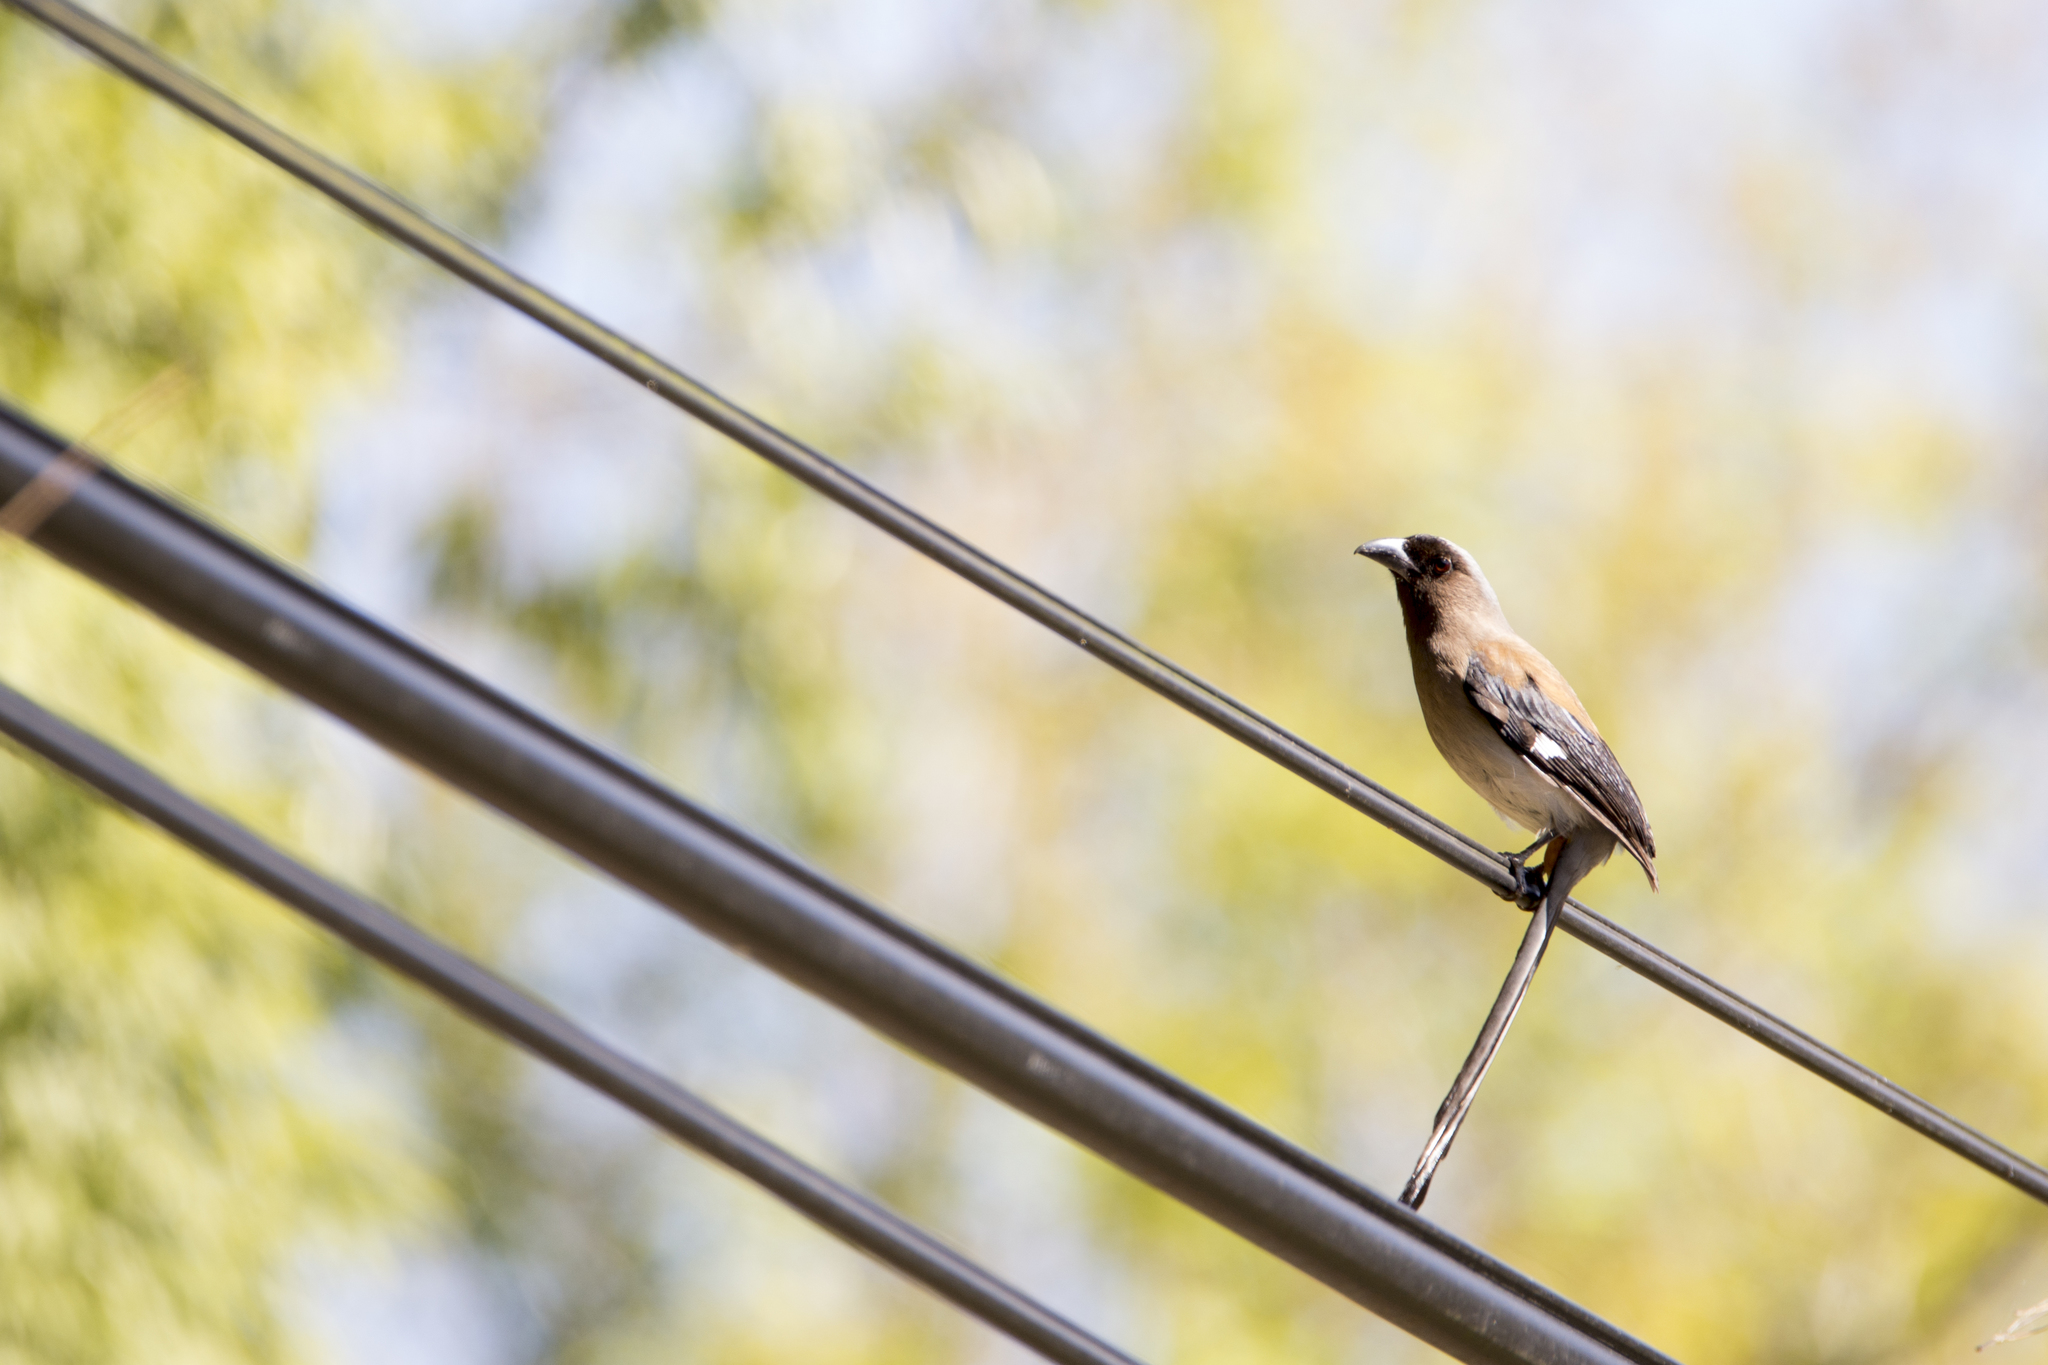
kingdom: Animalia
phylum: Chordata
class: Aves
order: Passeriformes
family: Corvidae
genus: Dendrocitta
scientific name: Dendrocitta formosae
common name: Grey treepie
